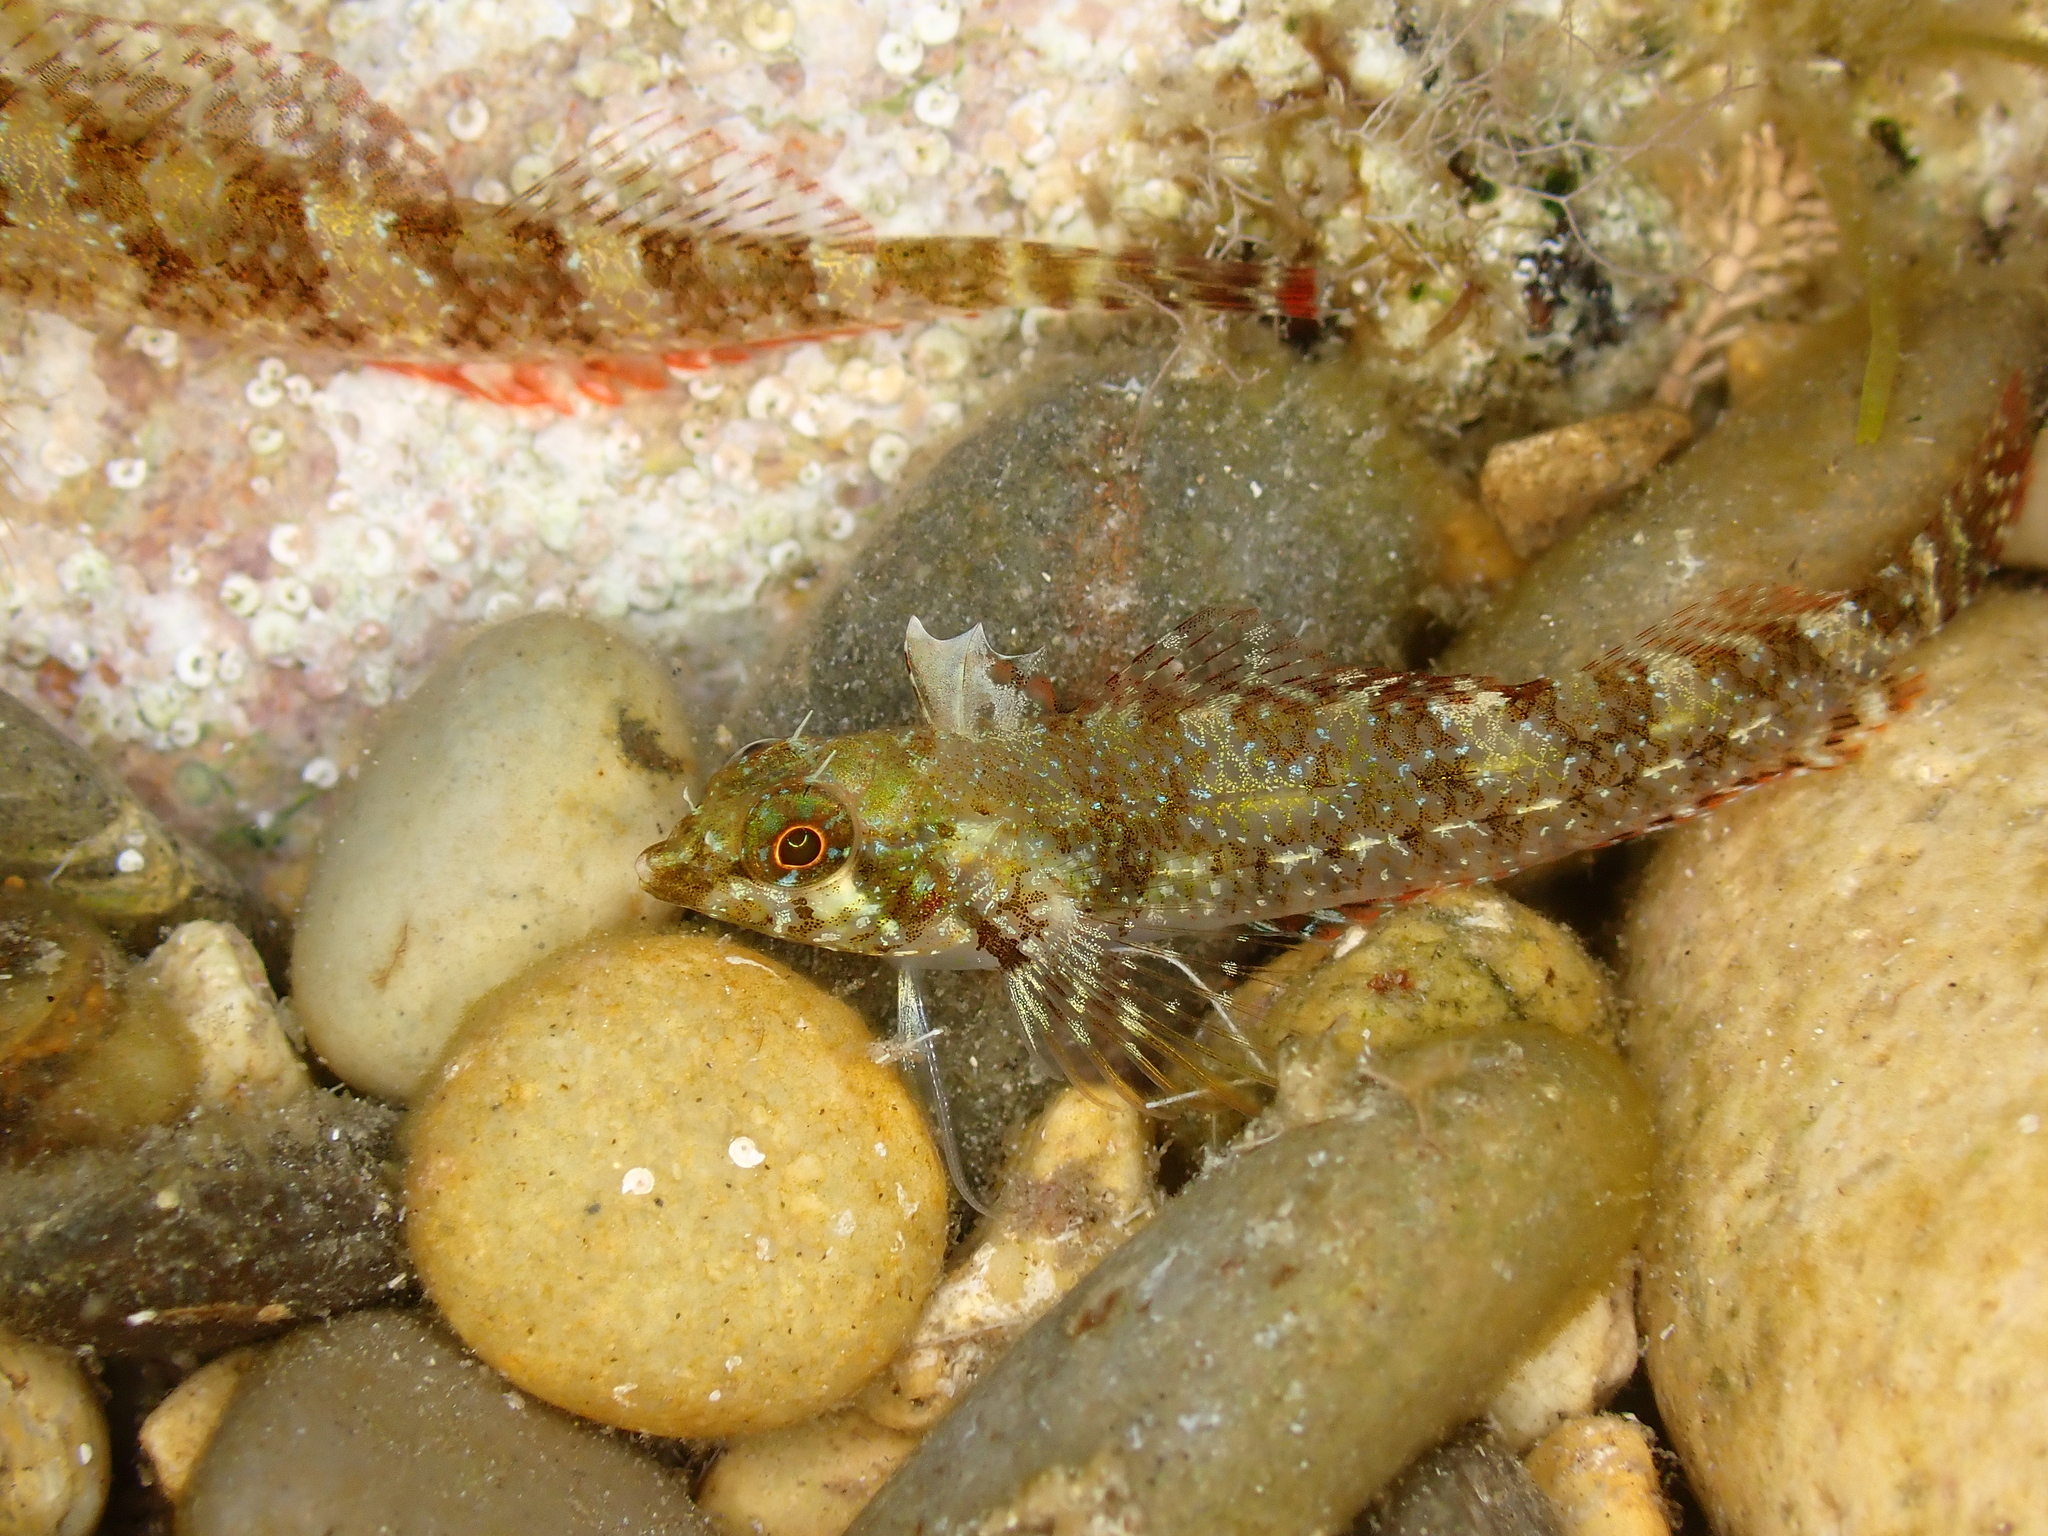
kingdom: Animalia
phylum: Chordata
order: Perciformes
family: Tripterygiidae
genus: Tripterygion
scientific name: Tripterygion tripteronotum
